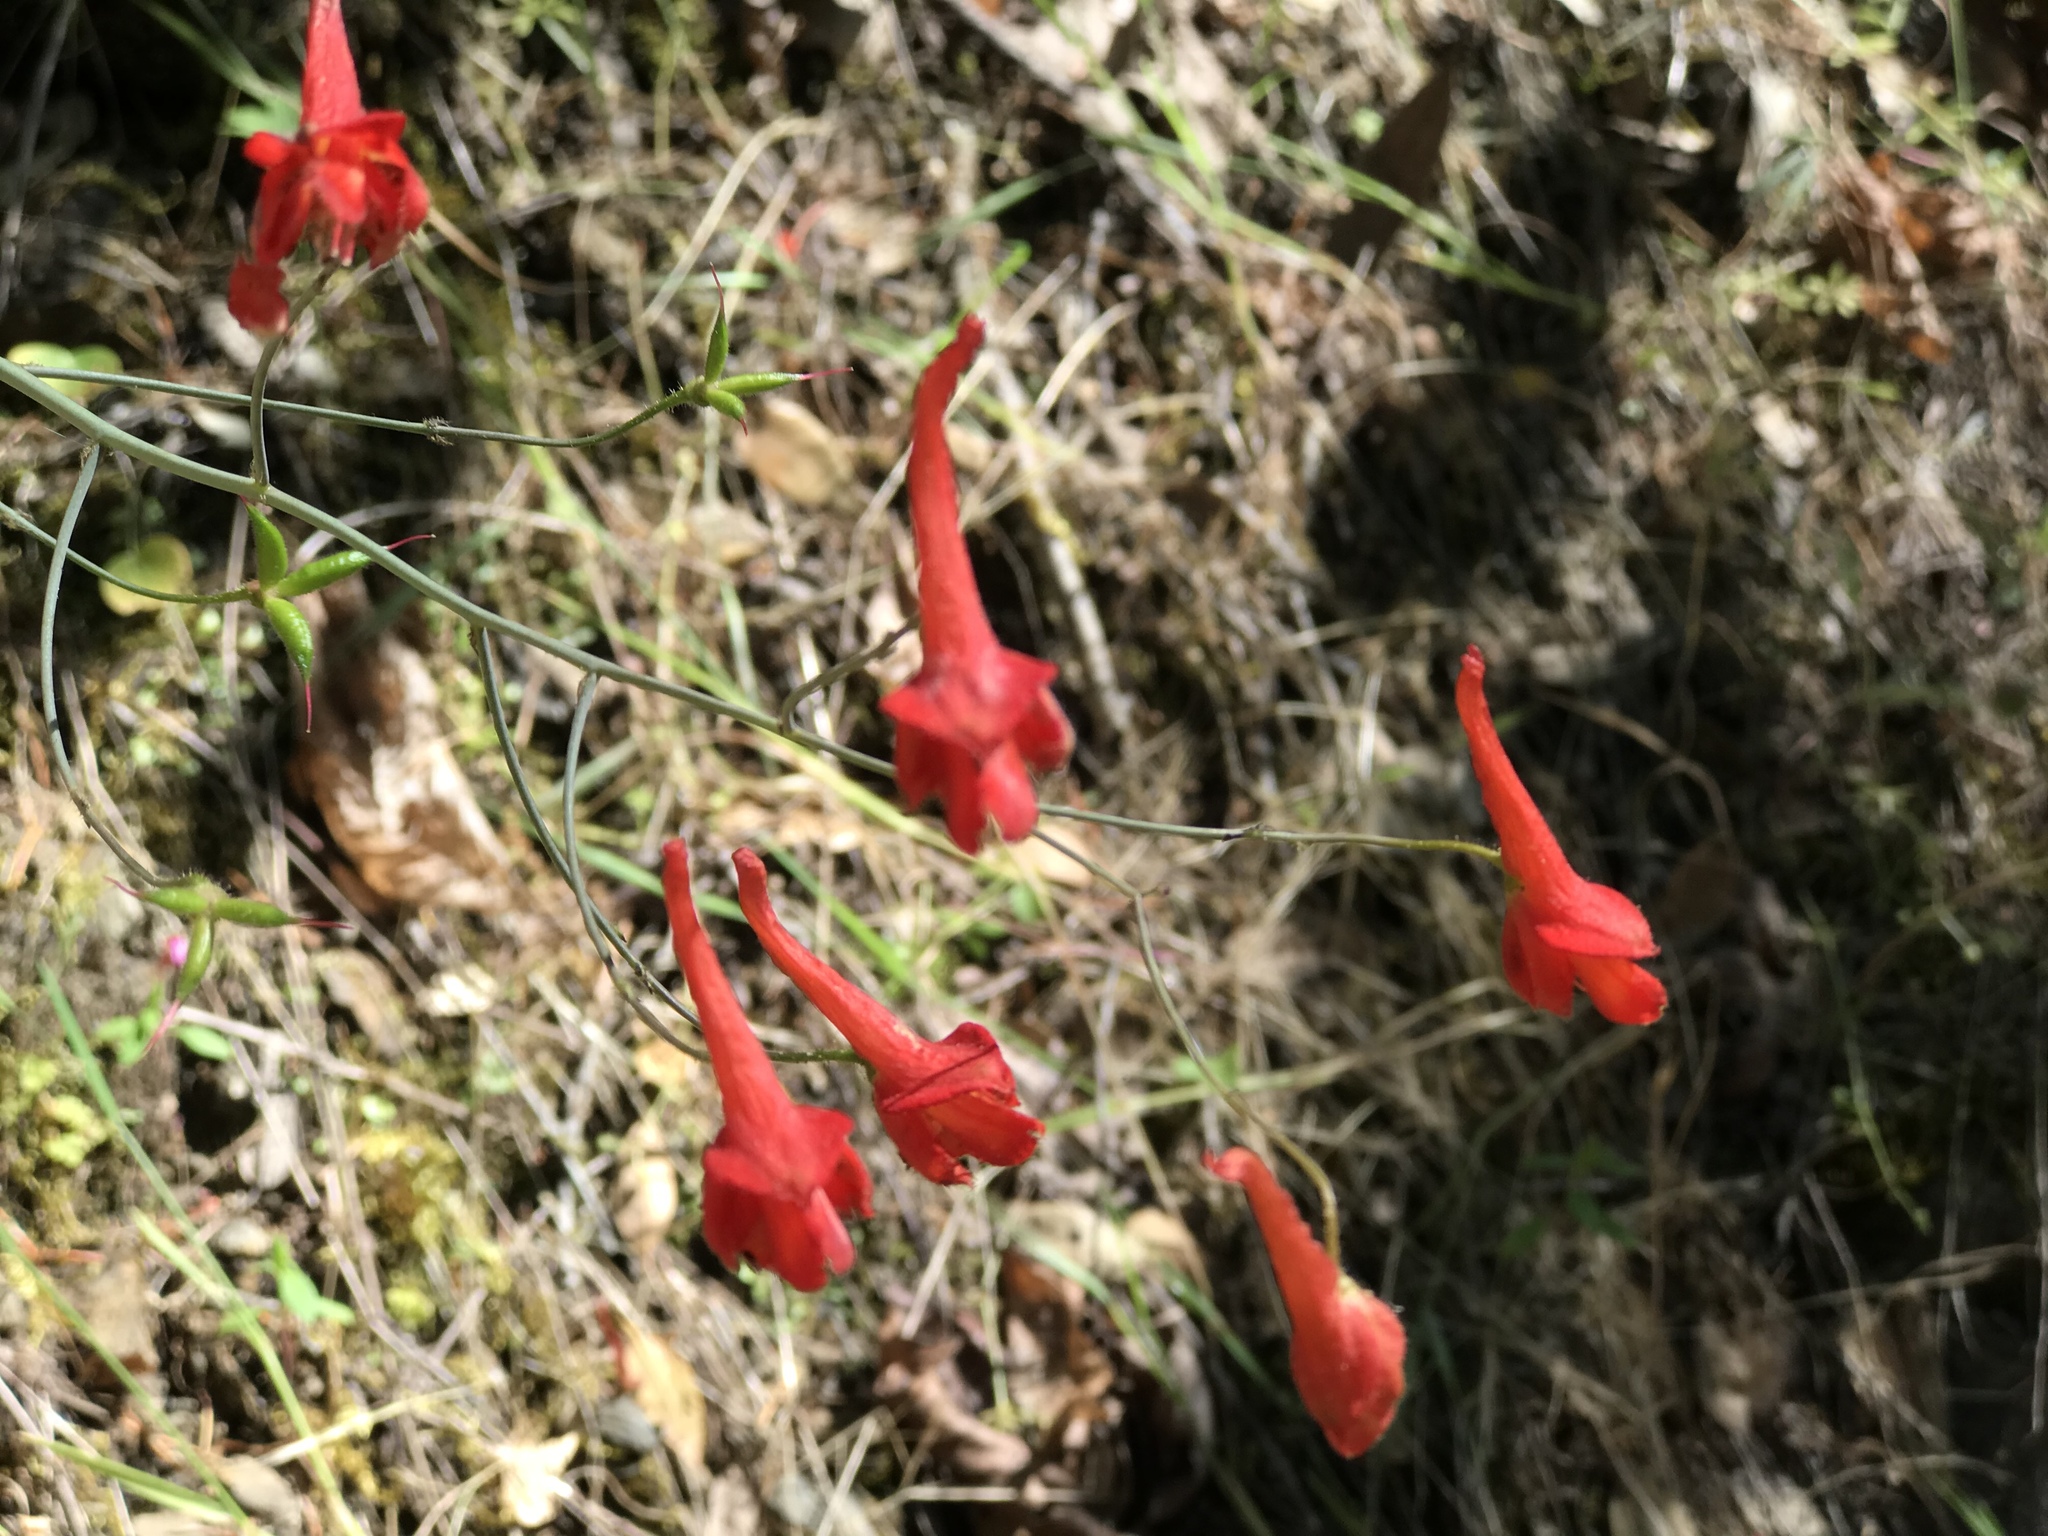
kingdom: Plantae
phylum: Tracheophyta
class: Magnoliopsida
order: Ranunculales
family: Ranunculaceae
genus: Delphinium
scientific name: Delphinium nudicaule
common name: Red larkspur
